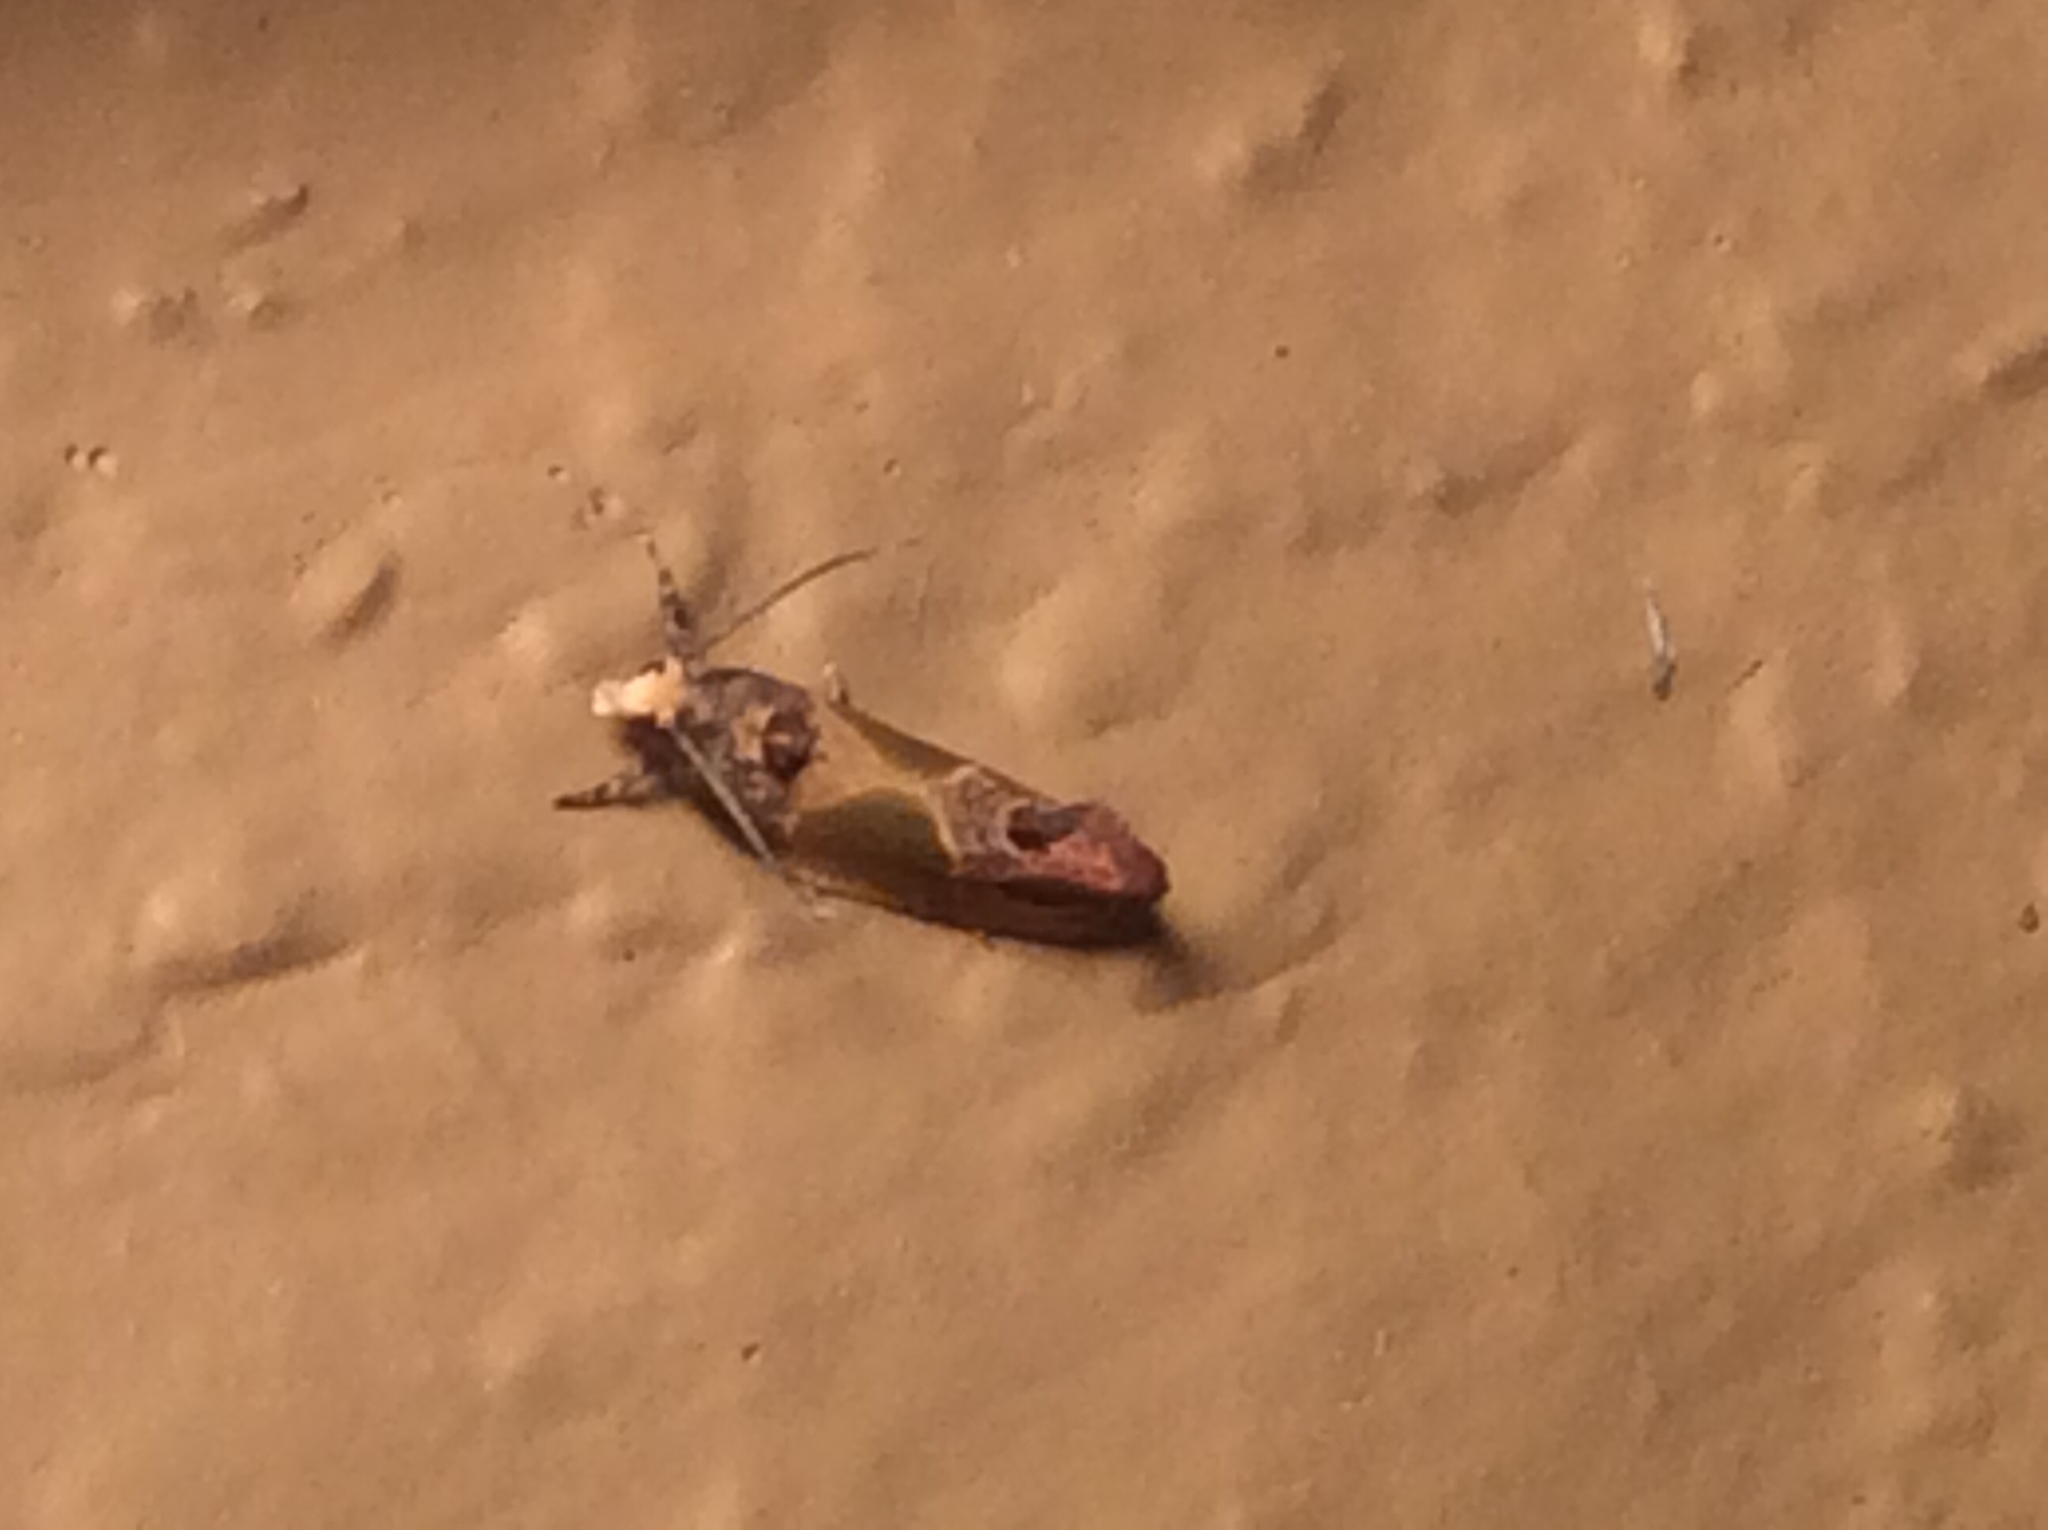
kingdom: Animalia
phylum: Arthropoda
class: Insecta
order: Lepidoptera
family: Tortricidae
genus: Eumarozia
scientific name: Eumarozia malachitana
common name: Sculptured moth
